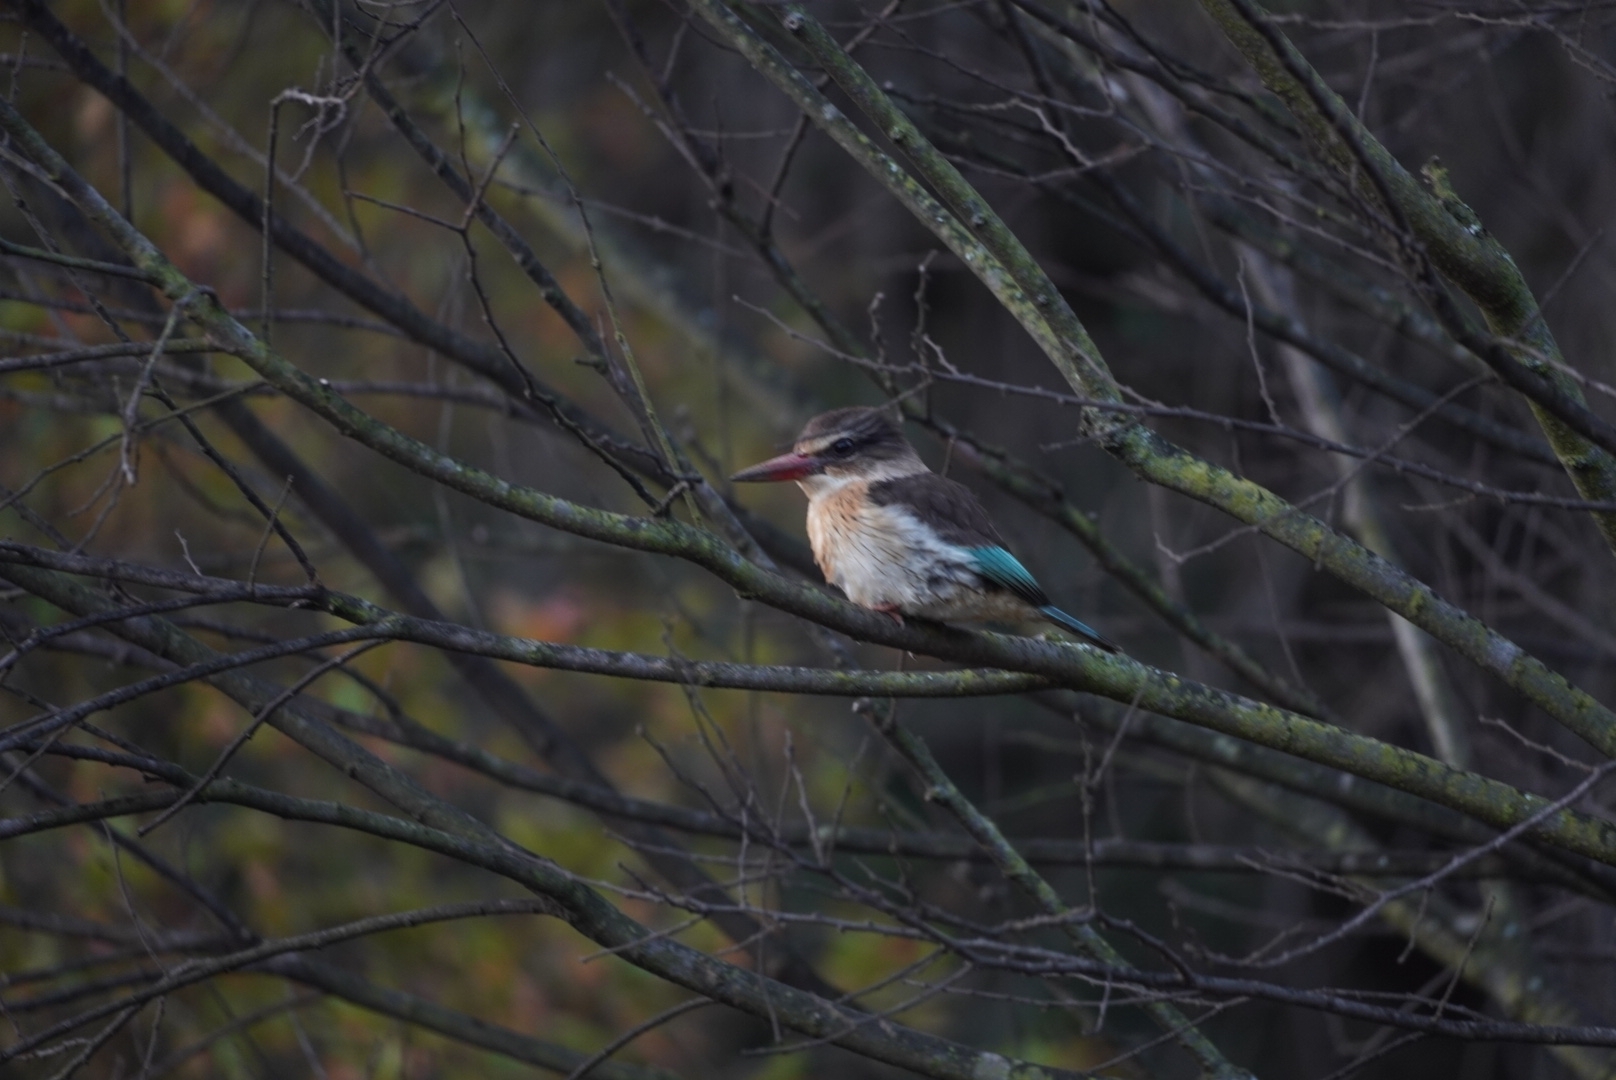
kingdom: Animalia
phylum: Chordata
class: Aves
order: Coraciiformes
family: Alcedinidae
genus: Halcyon
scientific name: Halcyon albiventris
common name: Brown-hooded kingfisher
